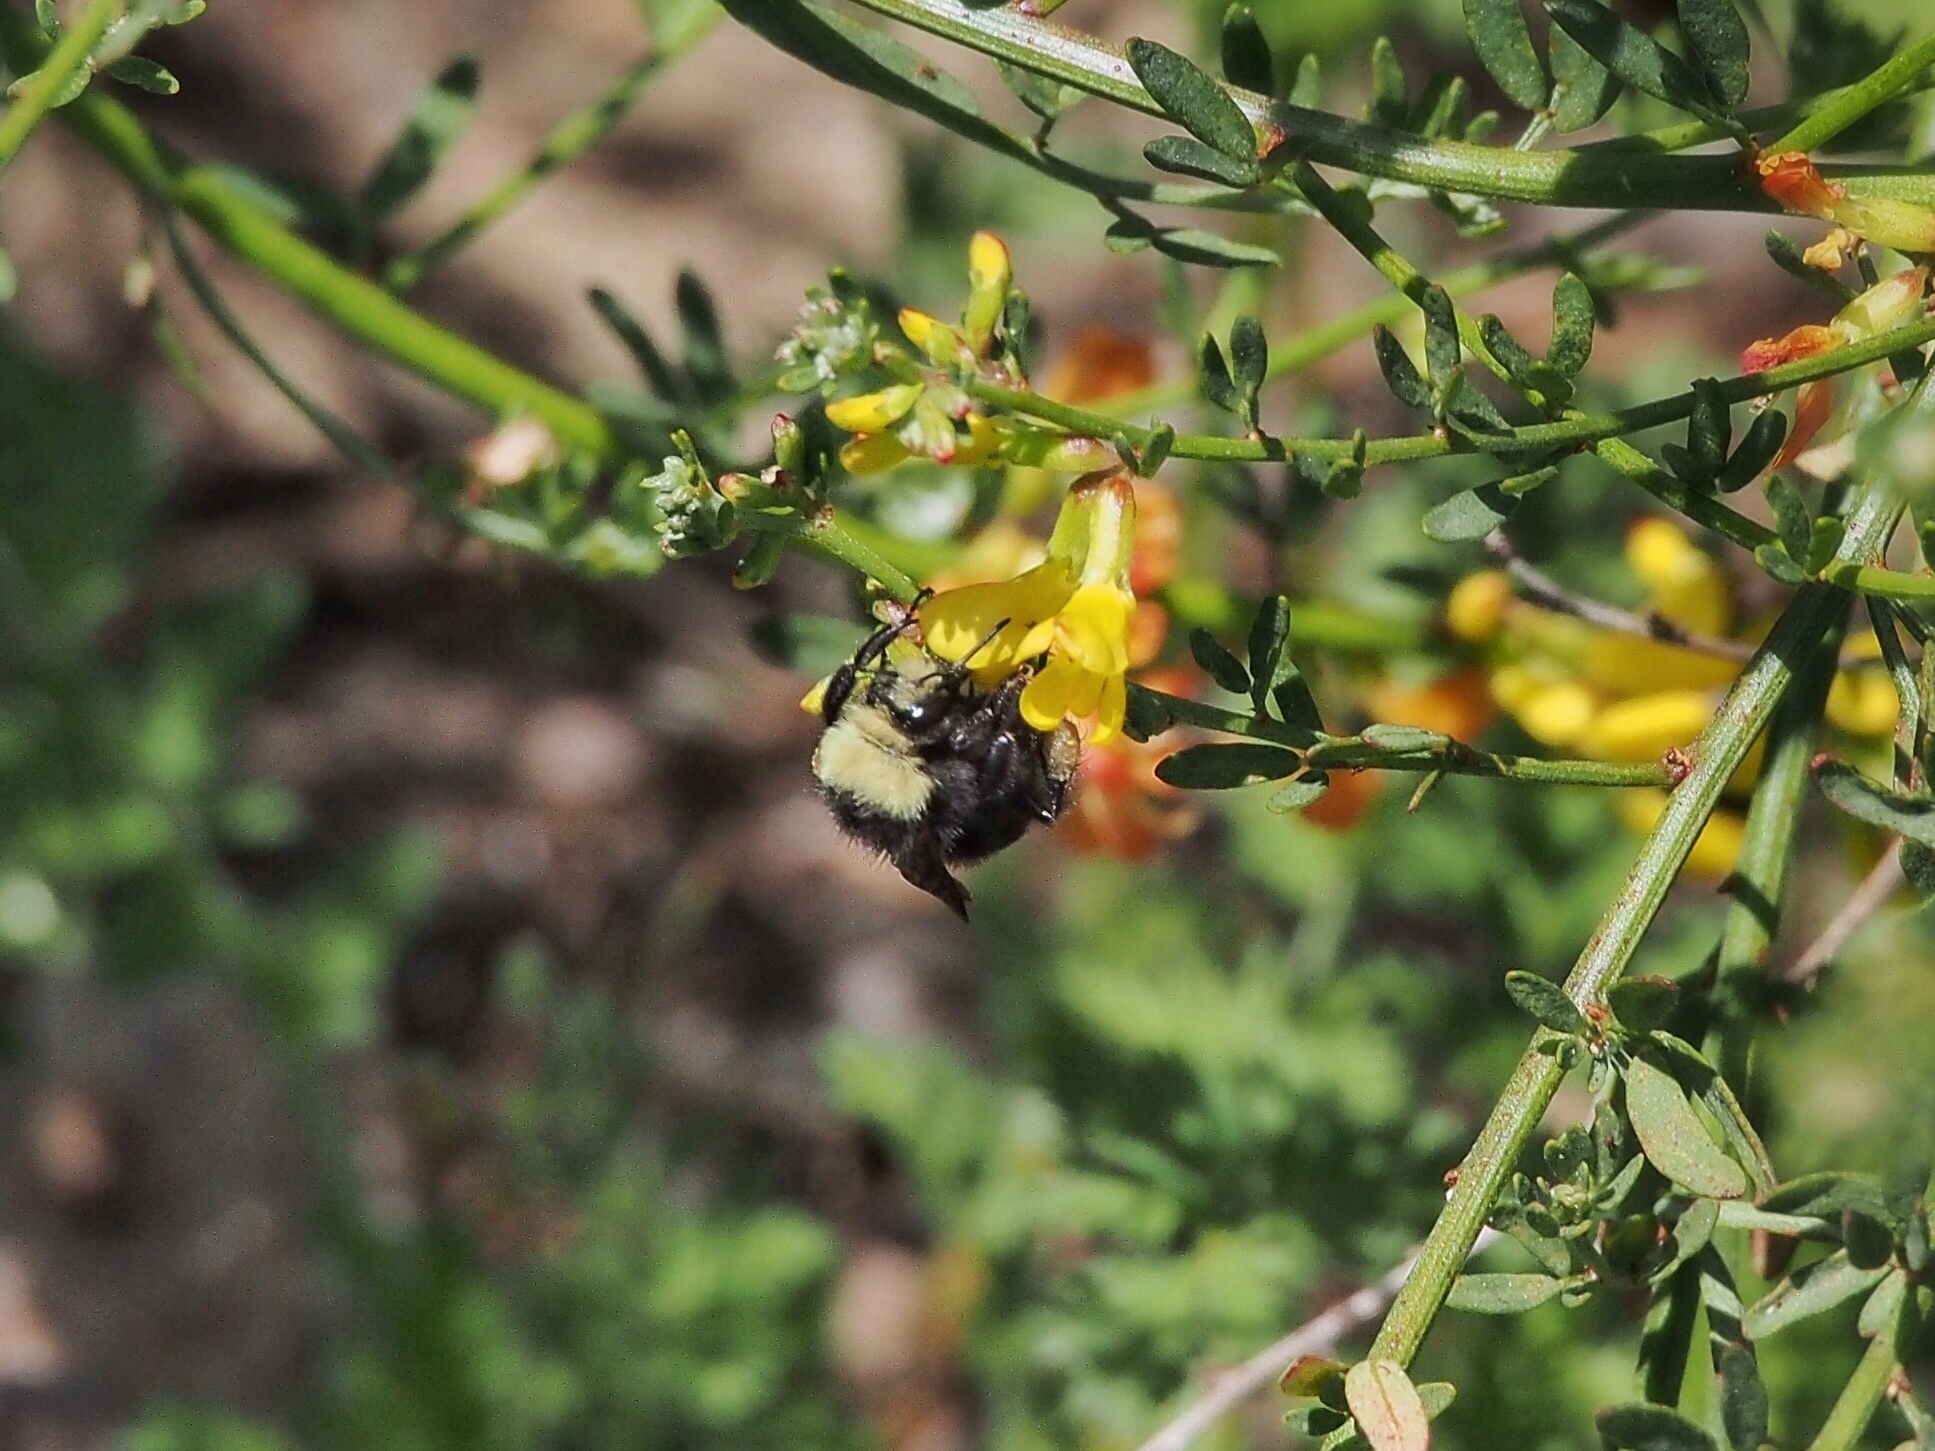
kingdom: Animalia
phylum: Arthropoda
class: Insecta
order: Hymenoptera
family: Apidae
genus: Bombus
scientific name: Bombus vosnesenskii
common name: Vosnesensky bumble bee
